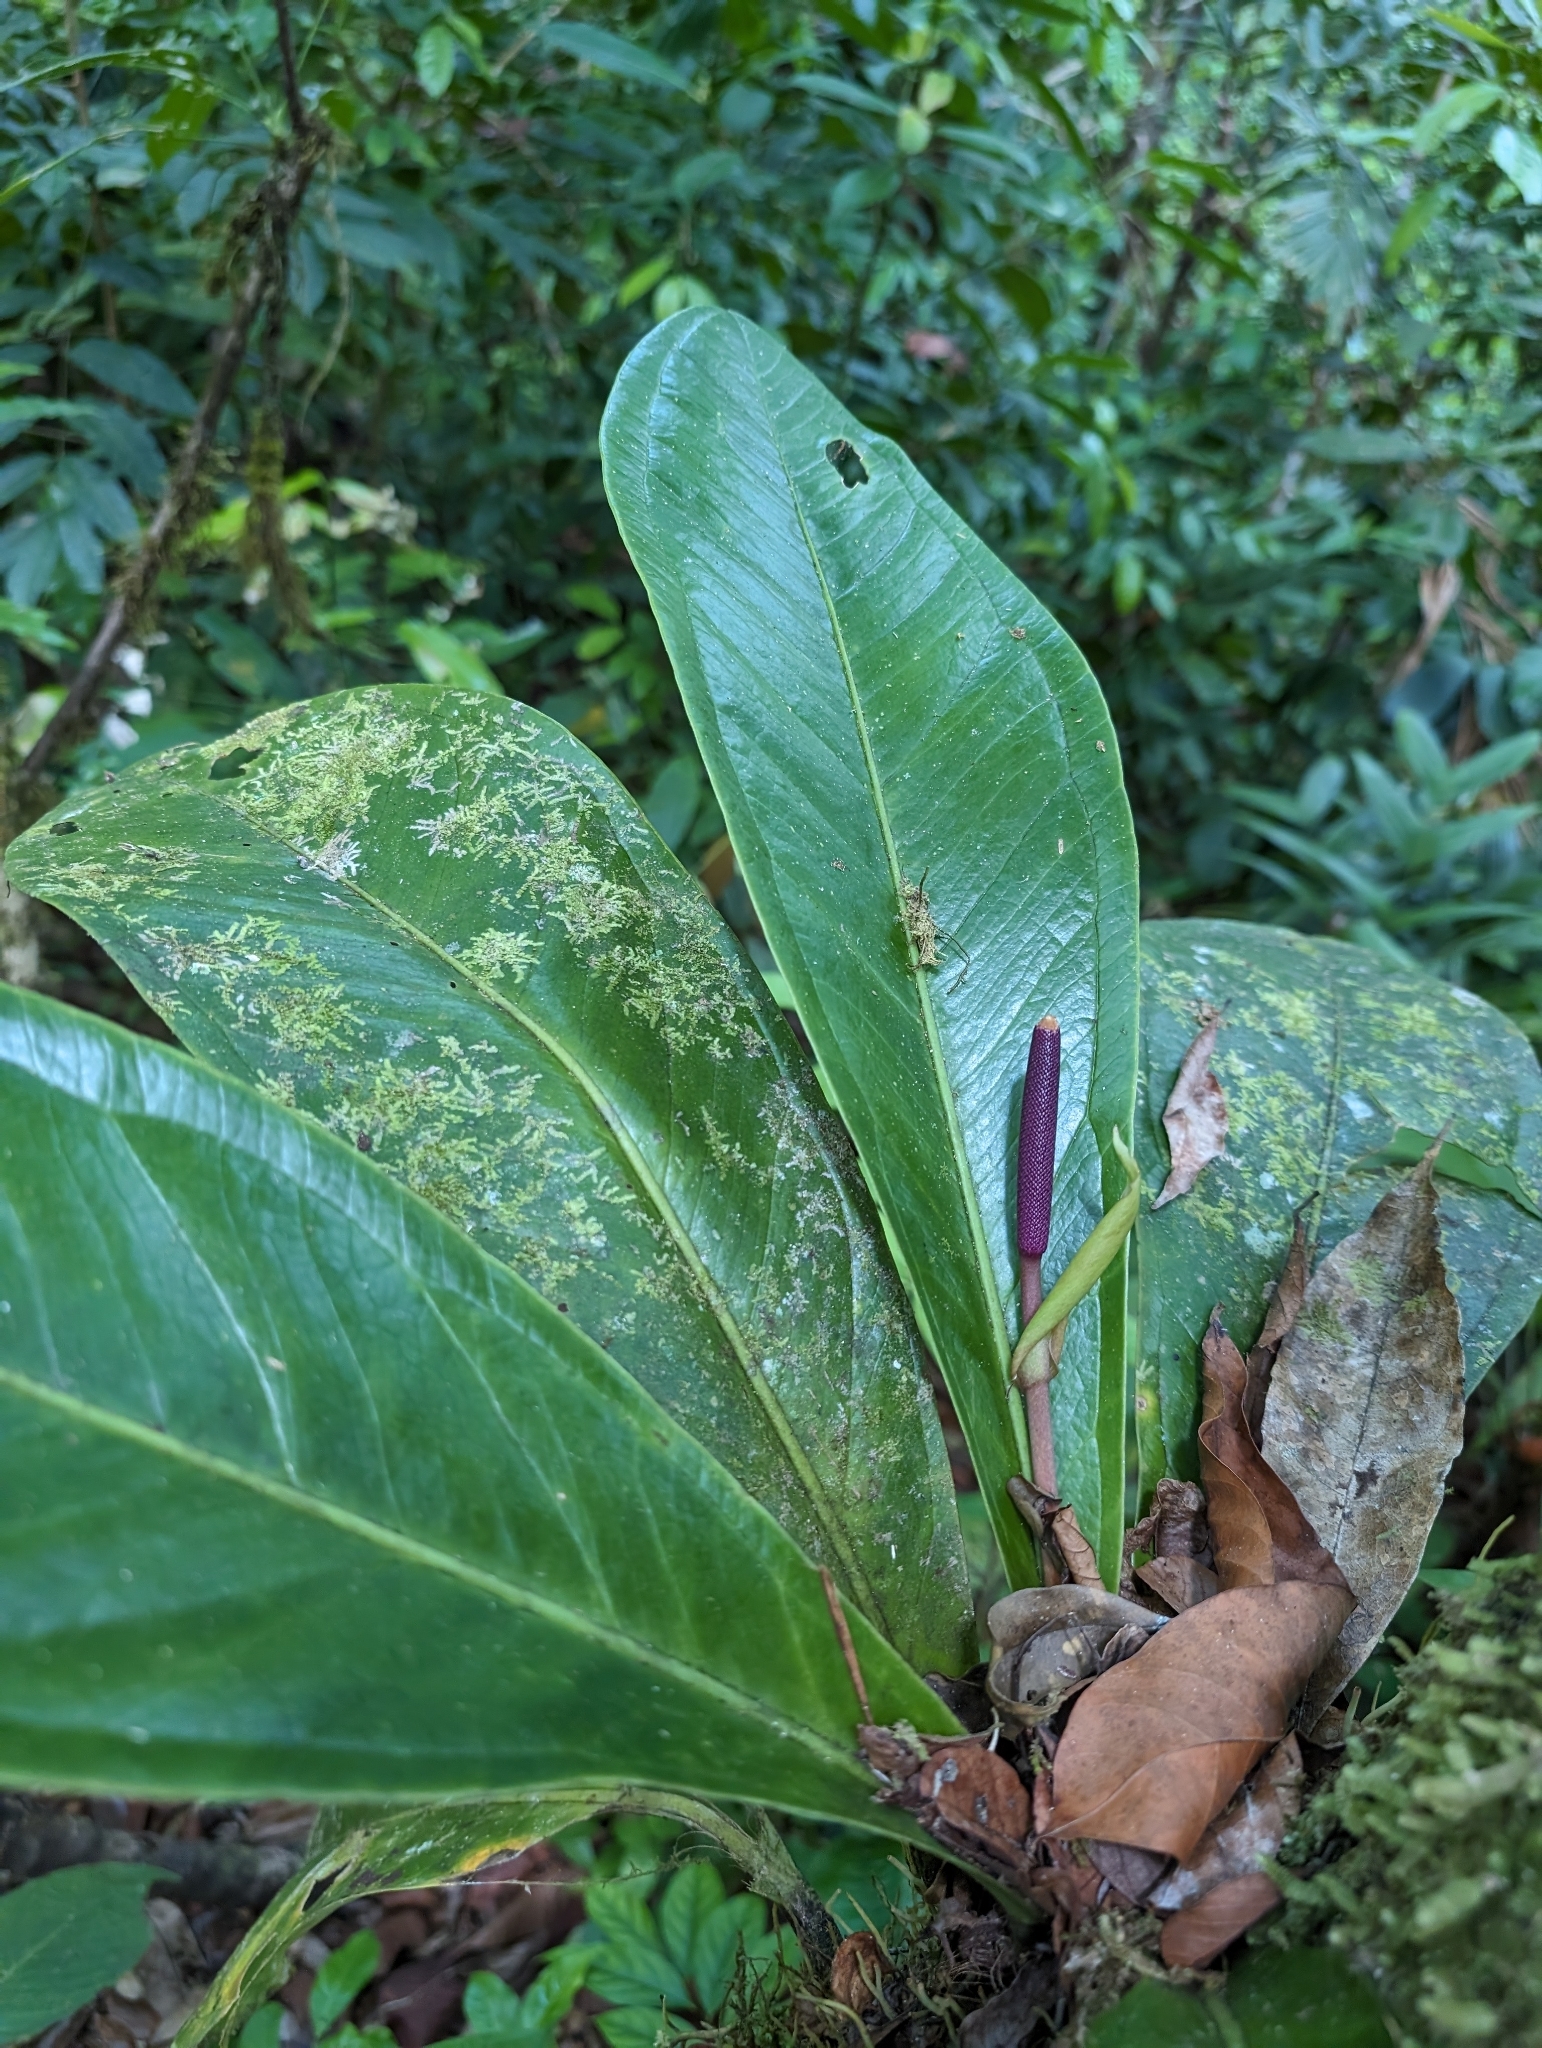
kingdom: Plantae
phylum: Tracheophyta
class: Liliopsida
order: Alismatales
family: Araceae
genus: Anthurium
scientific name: Anthurium hacumense
